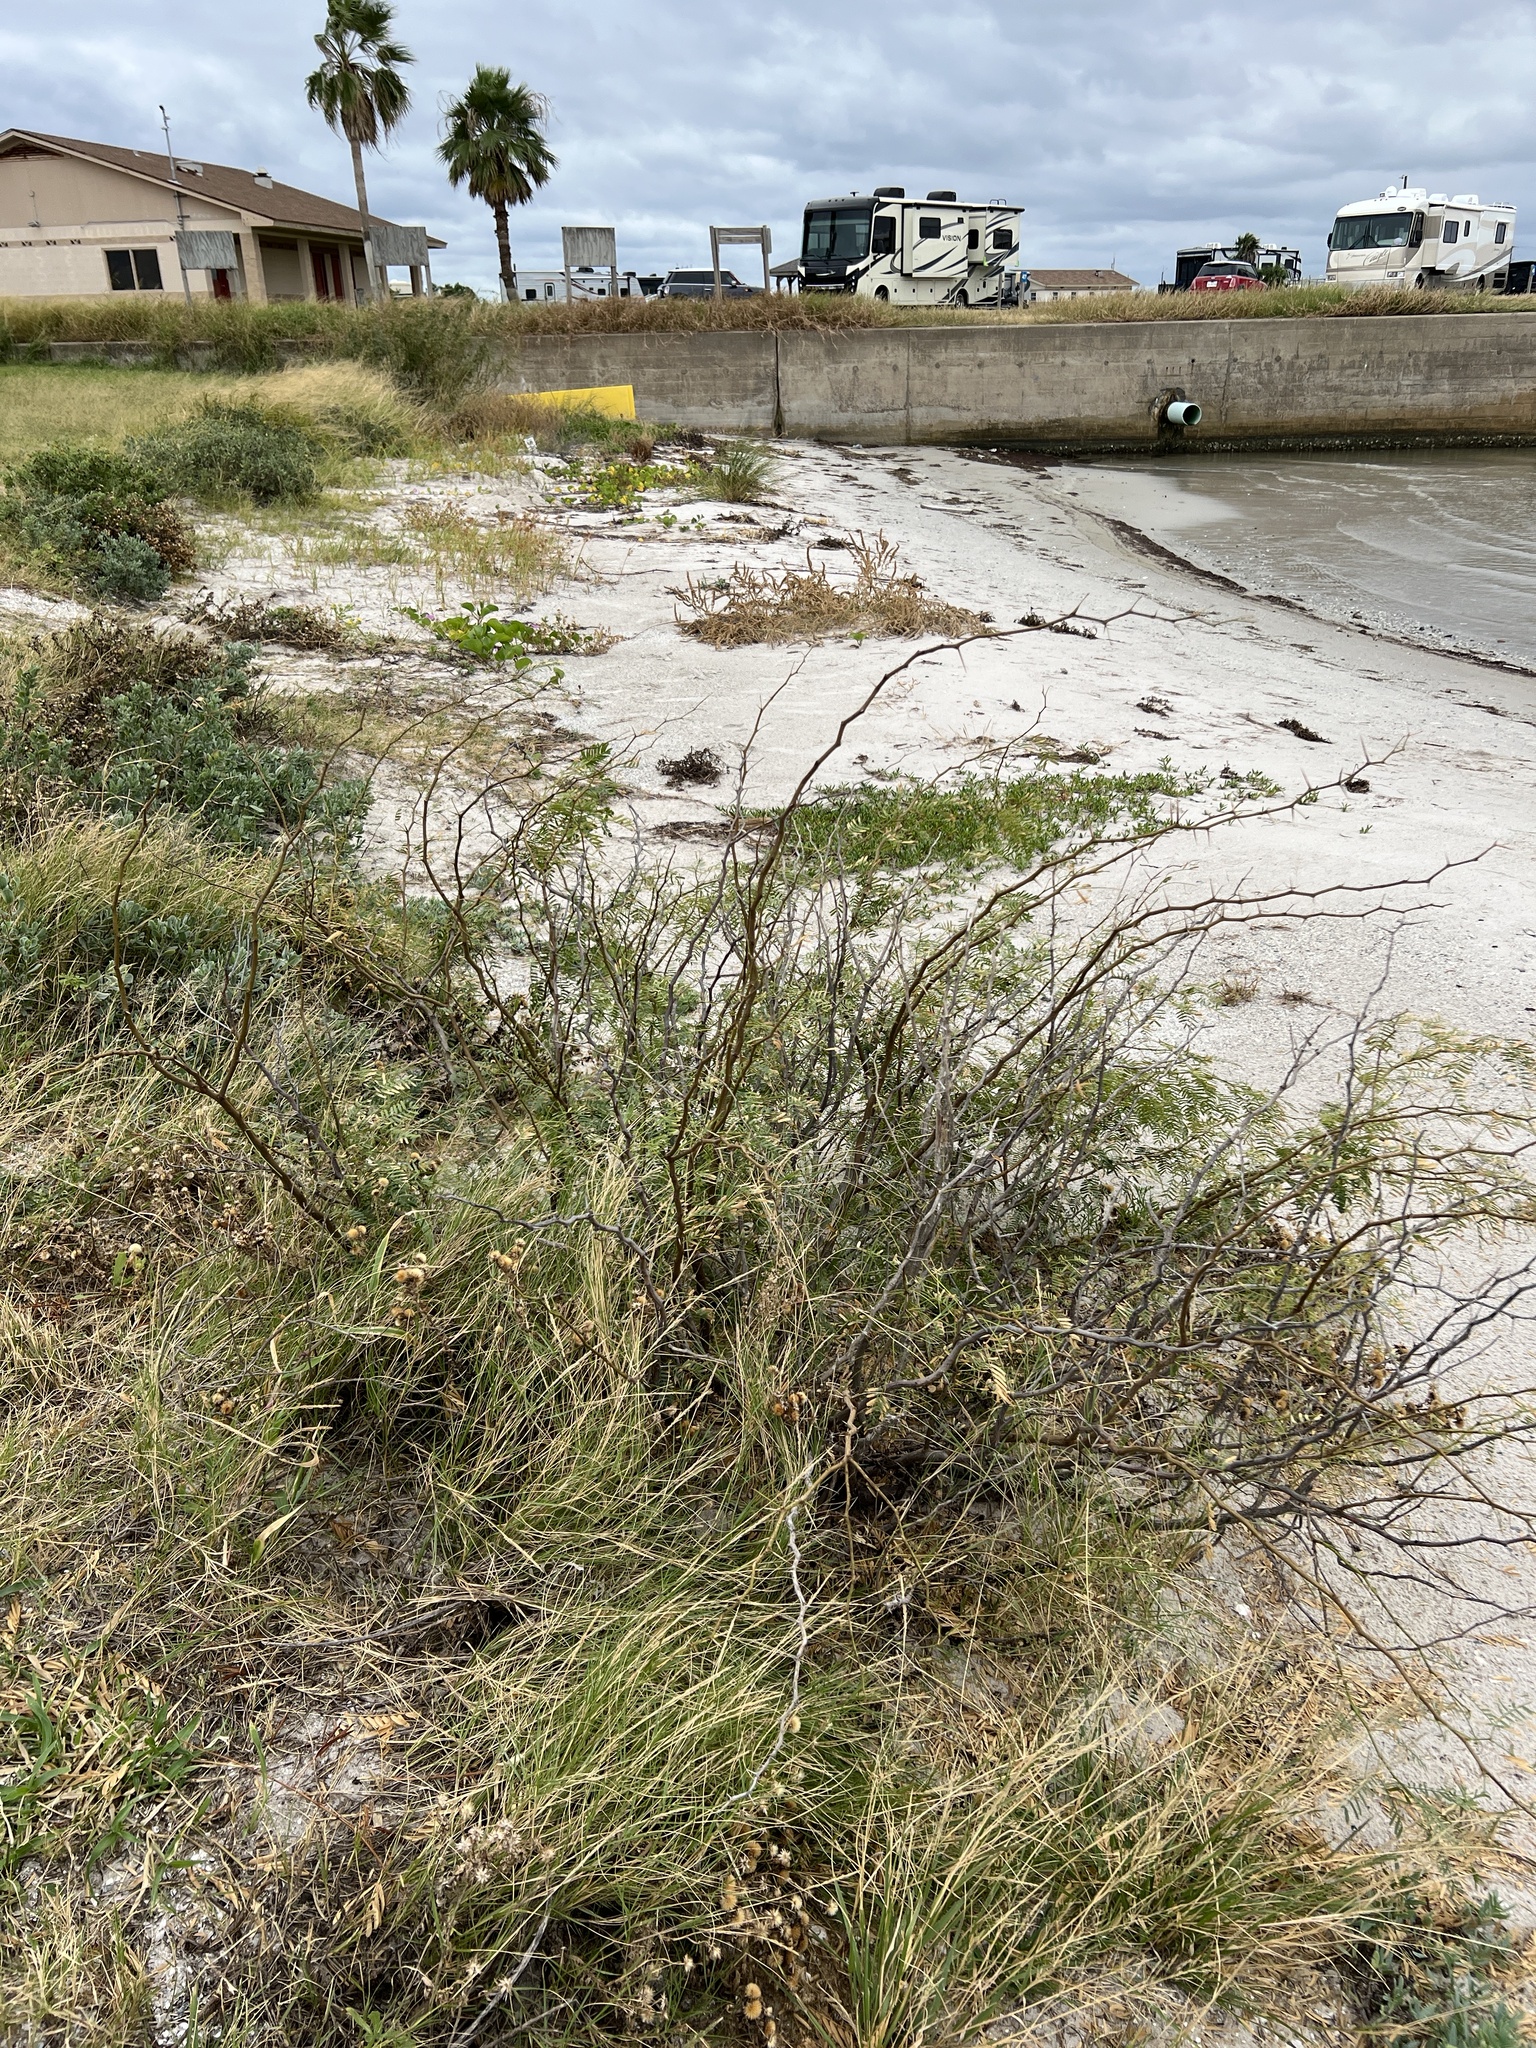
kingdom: Plantae
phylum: Tracheophyta
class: Magnoliopsida
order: Fabales
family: Fabaceae
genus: Prosopis
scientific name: Prosopis glandulosa
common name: Honey mesquite
